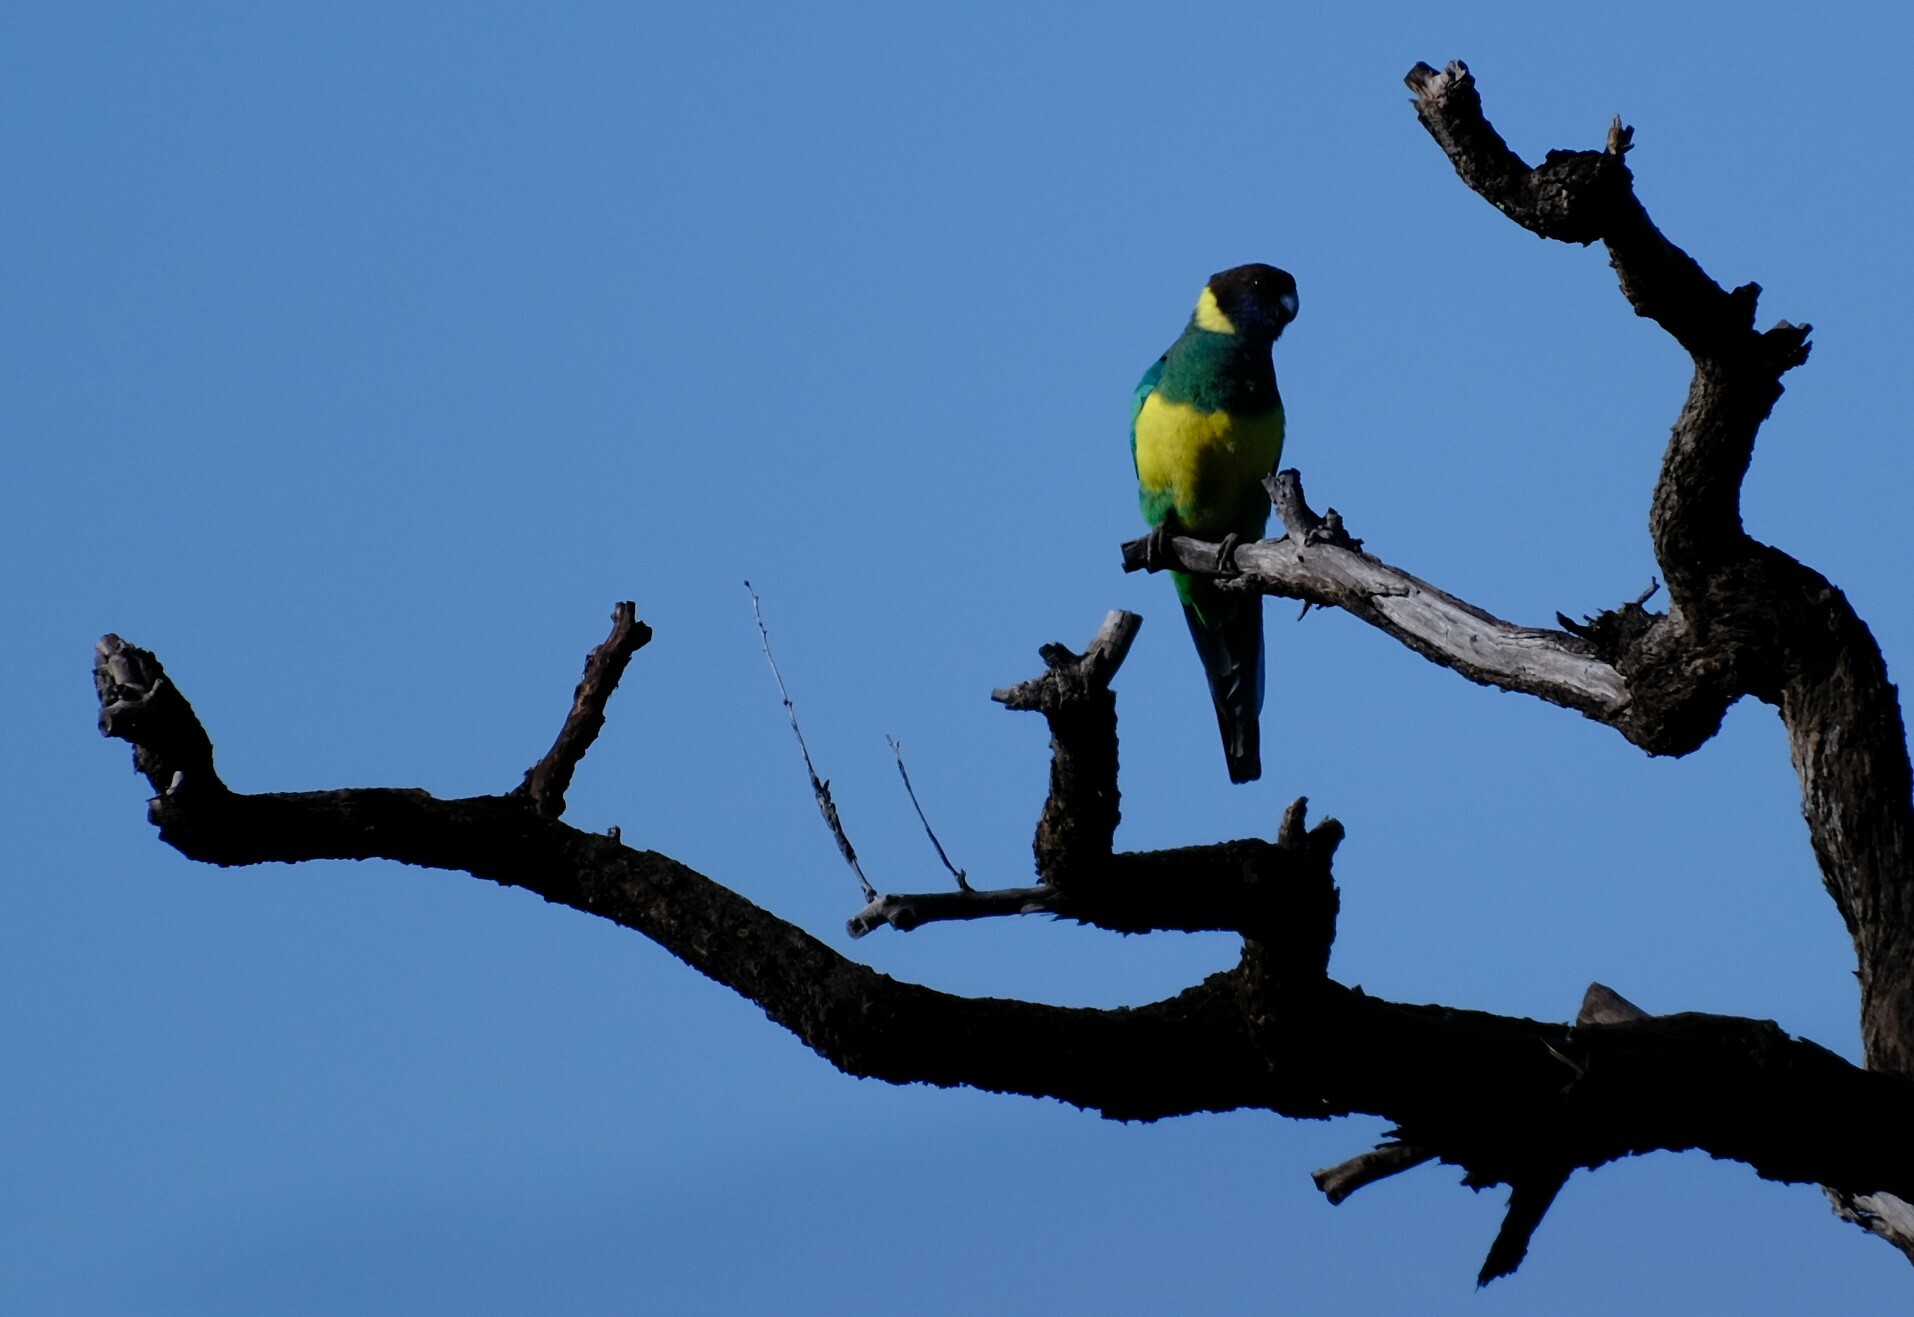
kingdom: Animalia
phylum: Chordata
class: Aves
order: Psittaciformes
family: Psittacidae
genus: Barnardius
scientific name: Barnardius zonarius
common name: Australian ringneck
